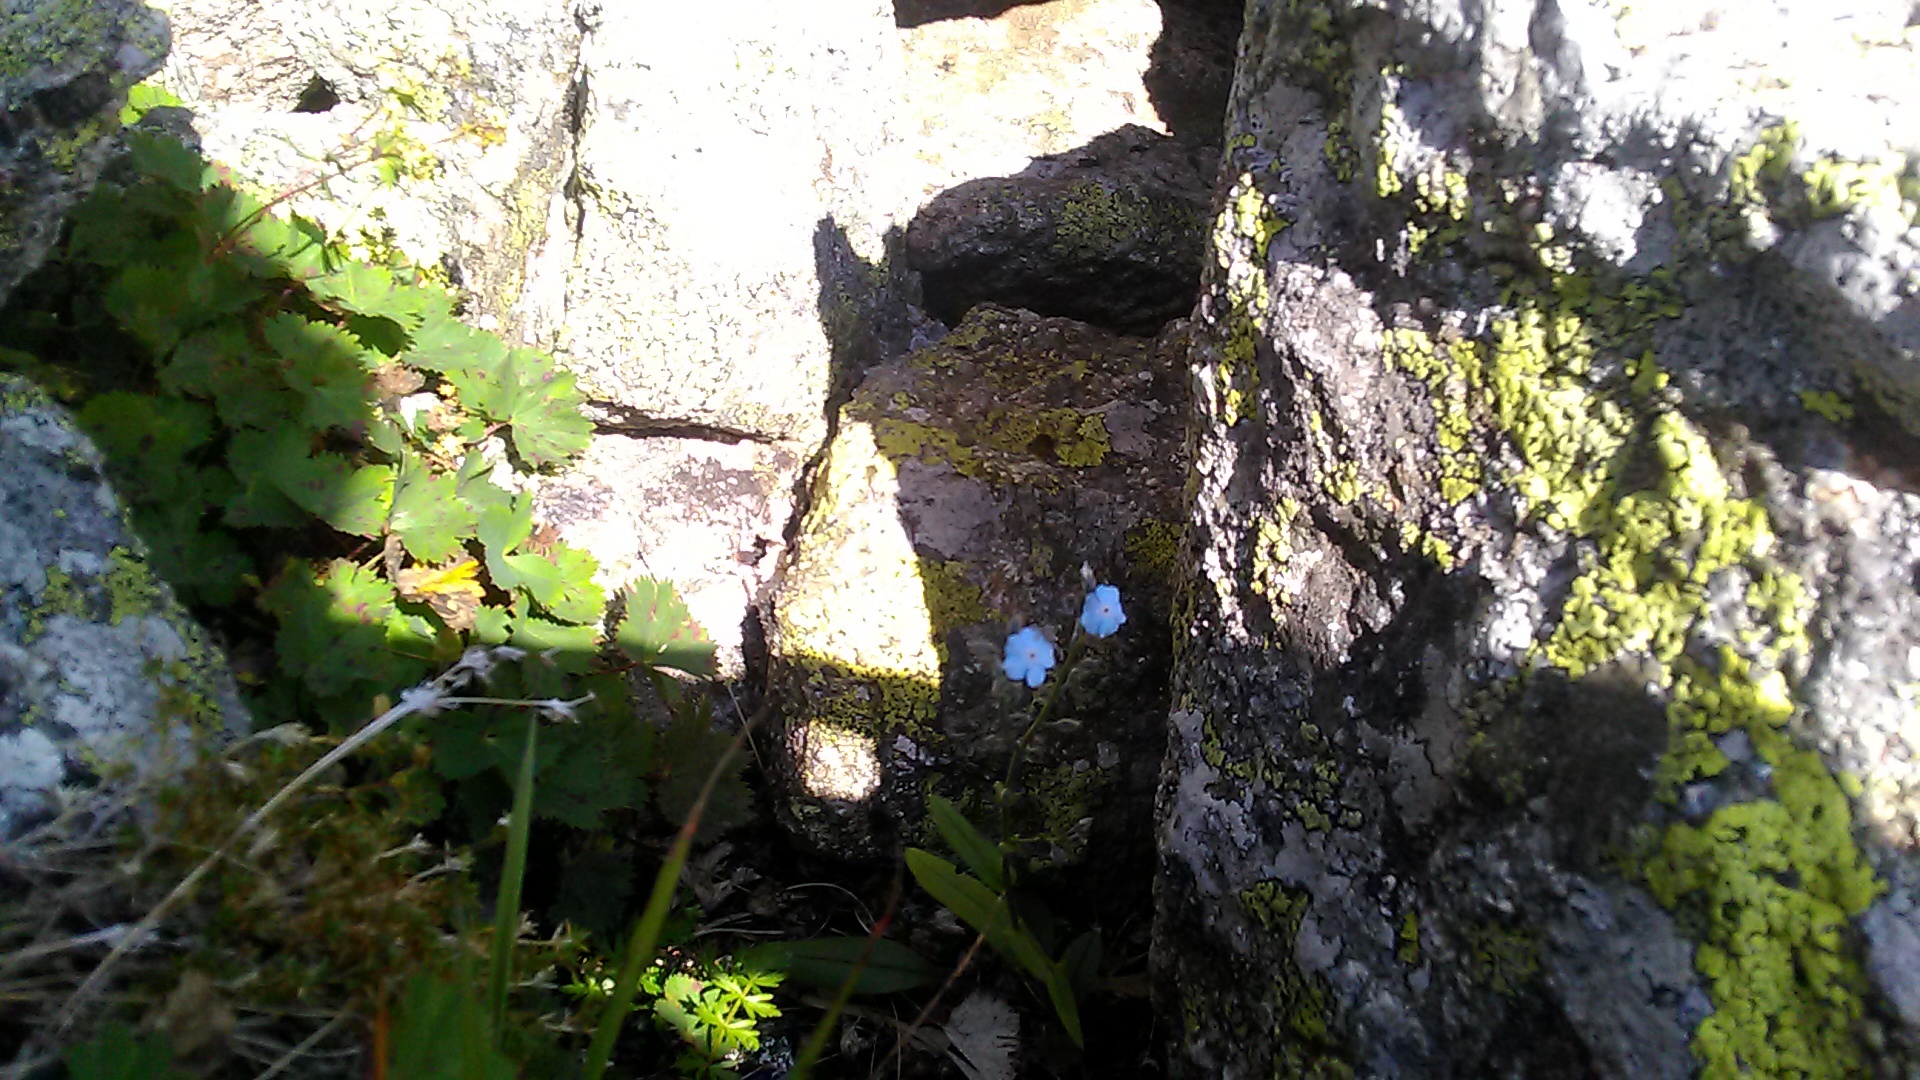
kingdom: Plantae
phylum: Tracheophyta
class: Magnoliopsida
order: Boraginales
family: Boraginaceae
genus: Myosotis
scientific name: Myosotis alpestris
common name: Alpine forget-me-not
